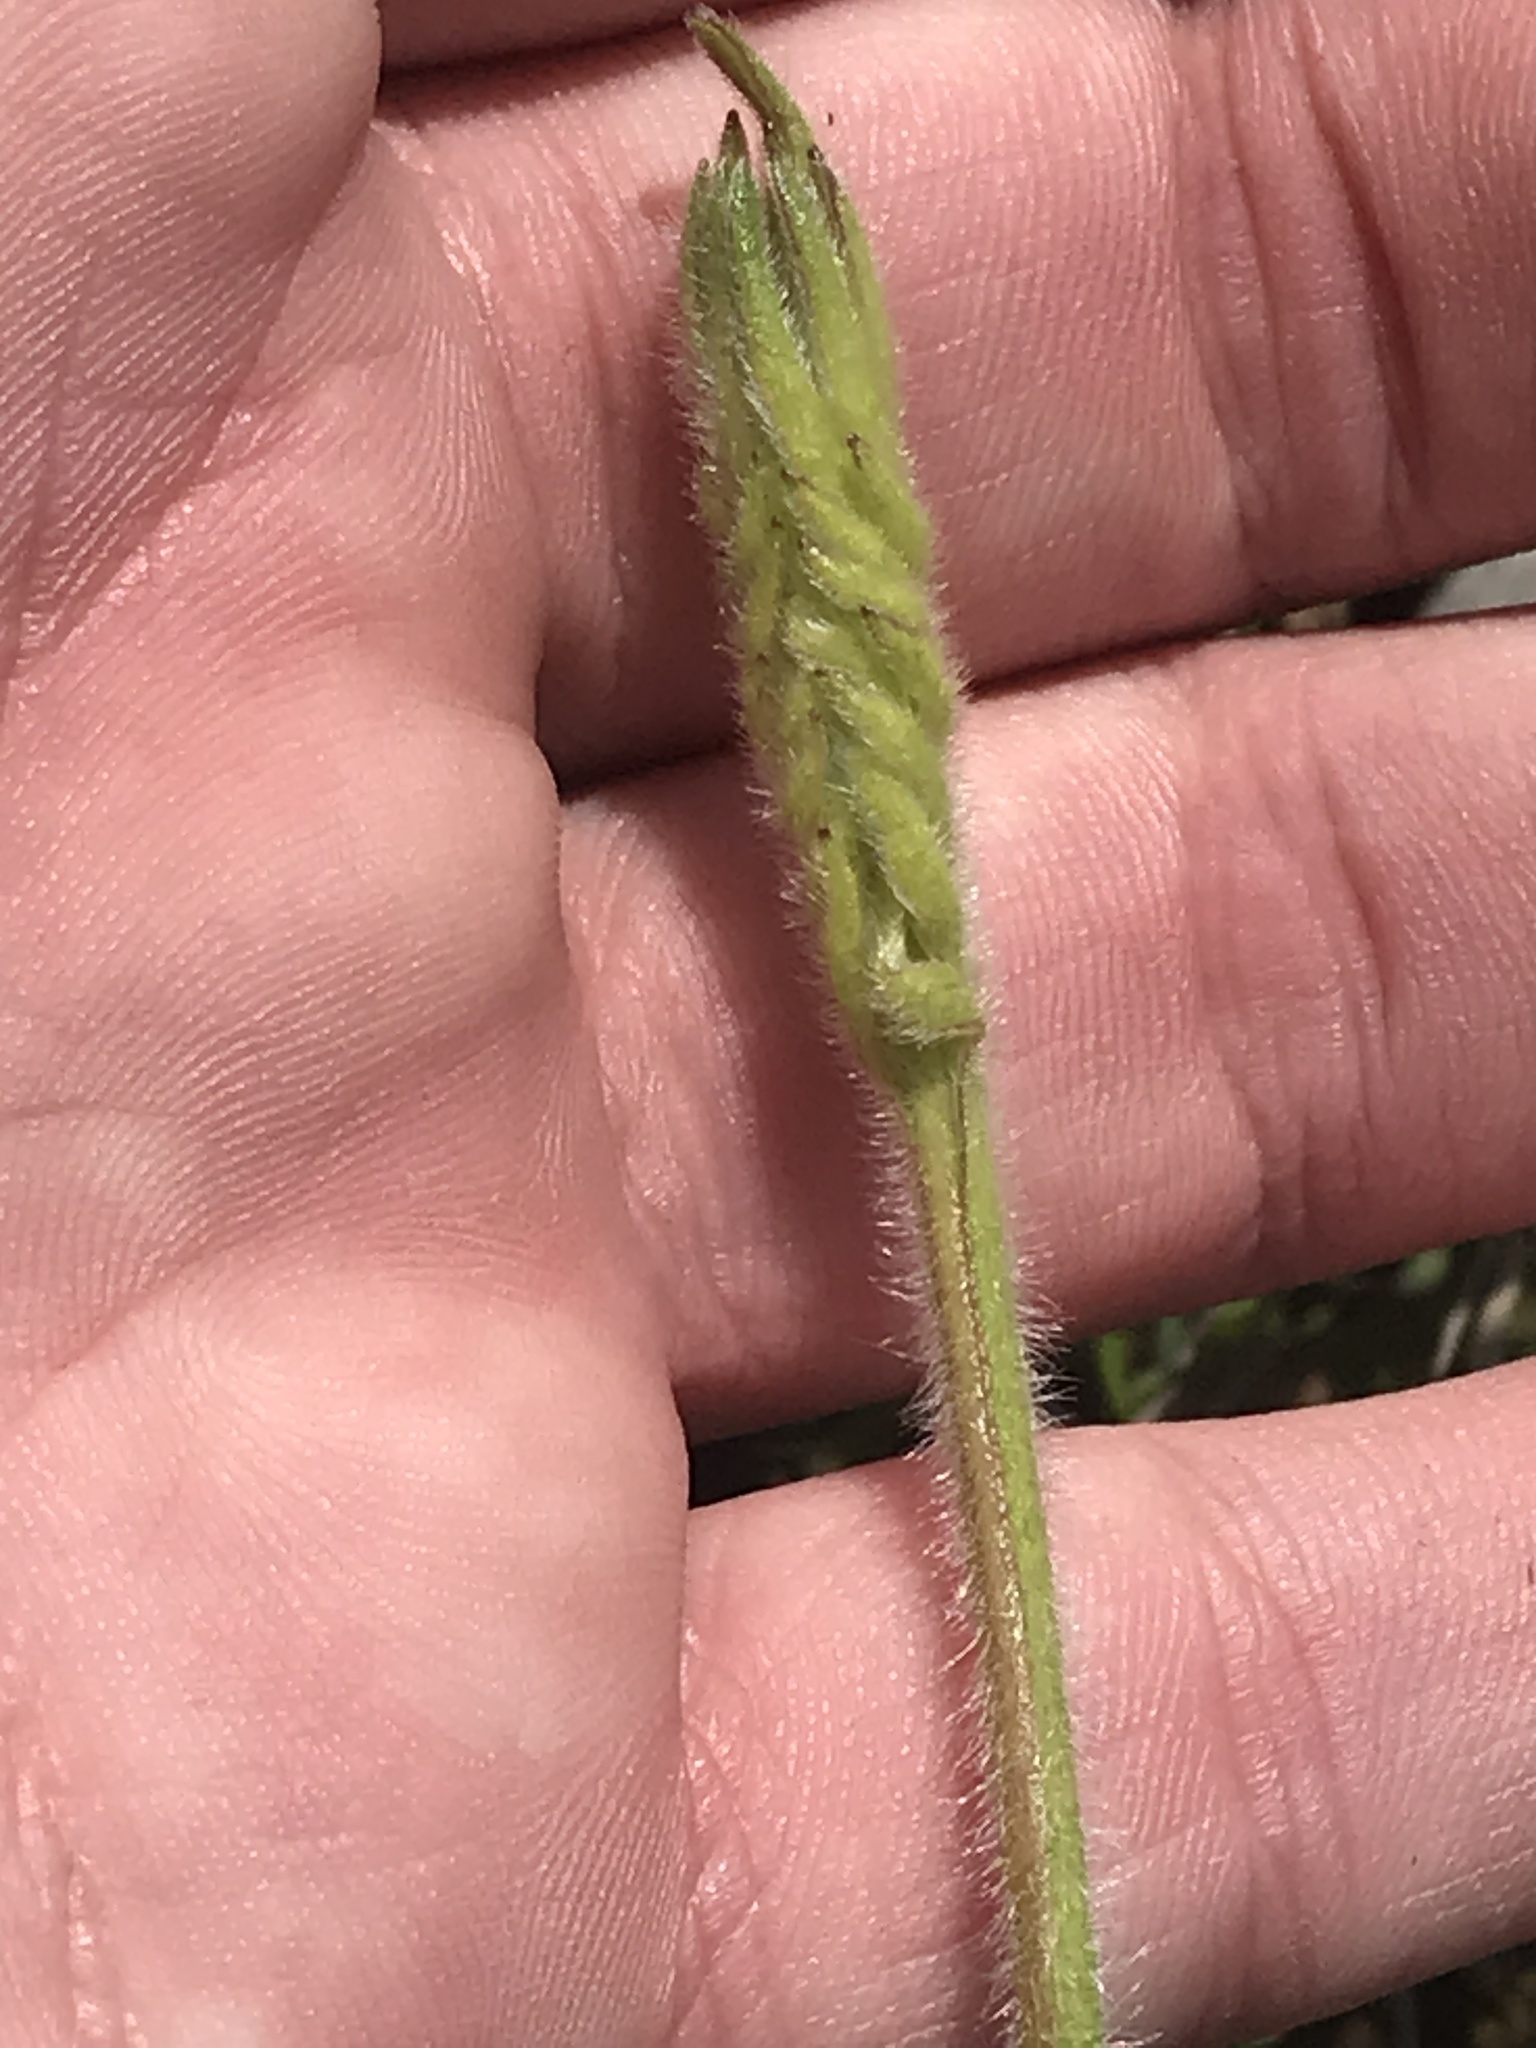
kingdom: Plantae
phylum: Tracheophyta
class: Magnoliopsida
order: Asterales
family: Asteraceae
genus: Silphium
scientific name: Silphium laciniatum
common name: Polarplant
